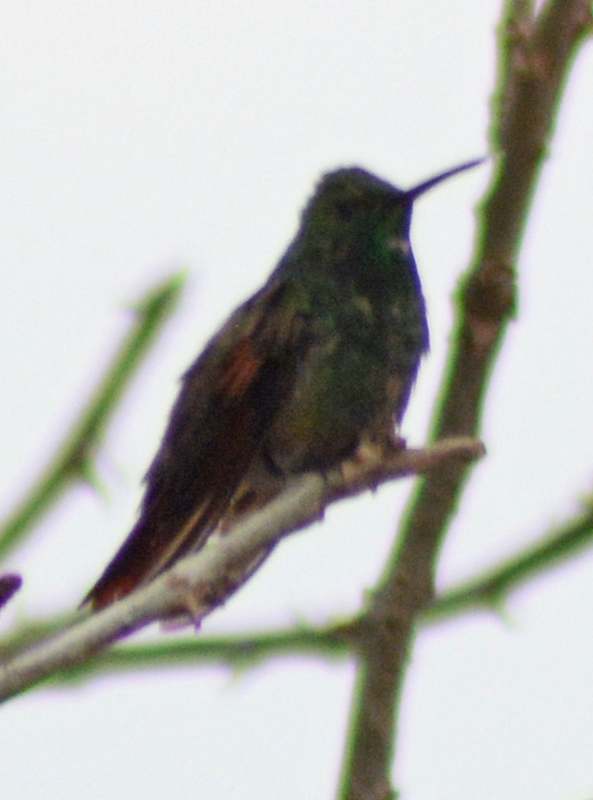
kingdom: Animalia
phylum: Chordata
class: Aves
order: Apodiformes
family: Trochilidae
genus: Saucerottia
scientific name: Saucerottia beryllina
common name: Berylline hummingbird
